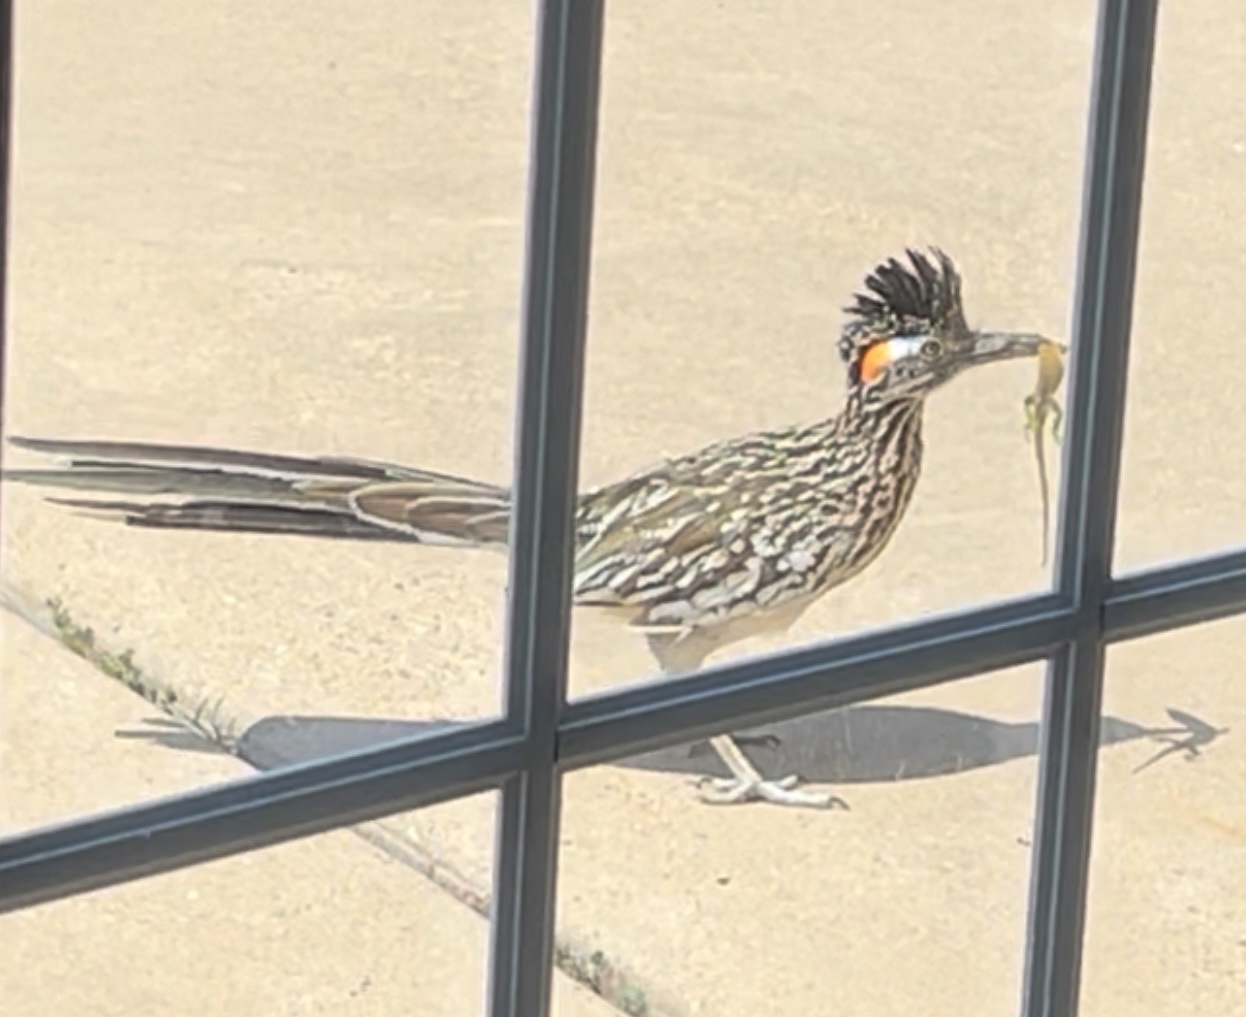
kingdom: Animalia
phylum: Chordata
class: Aves
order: Cuculiformes
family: Cuculidae
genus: Geococcyx
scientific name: Geococcyx californianus
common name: Greater roadrunner
